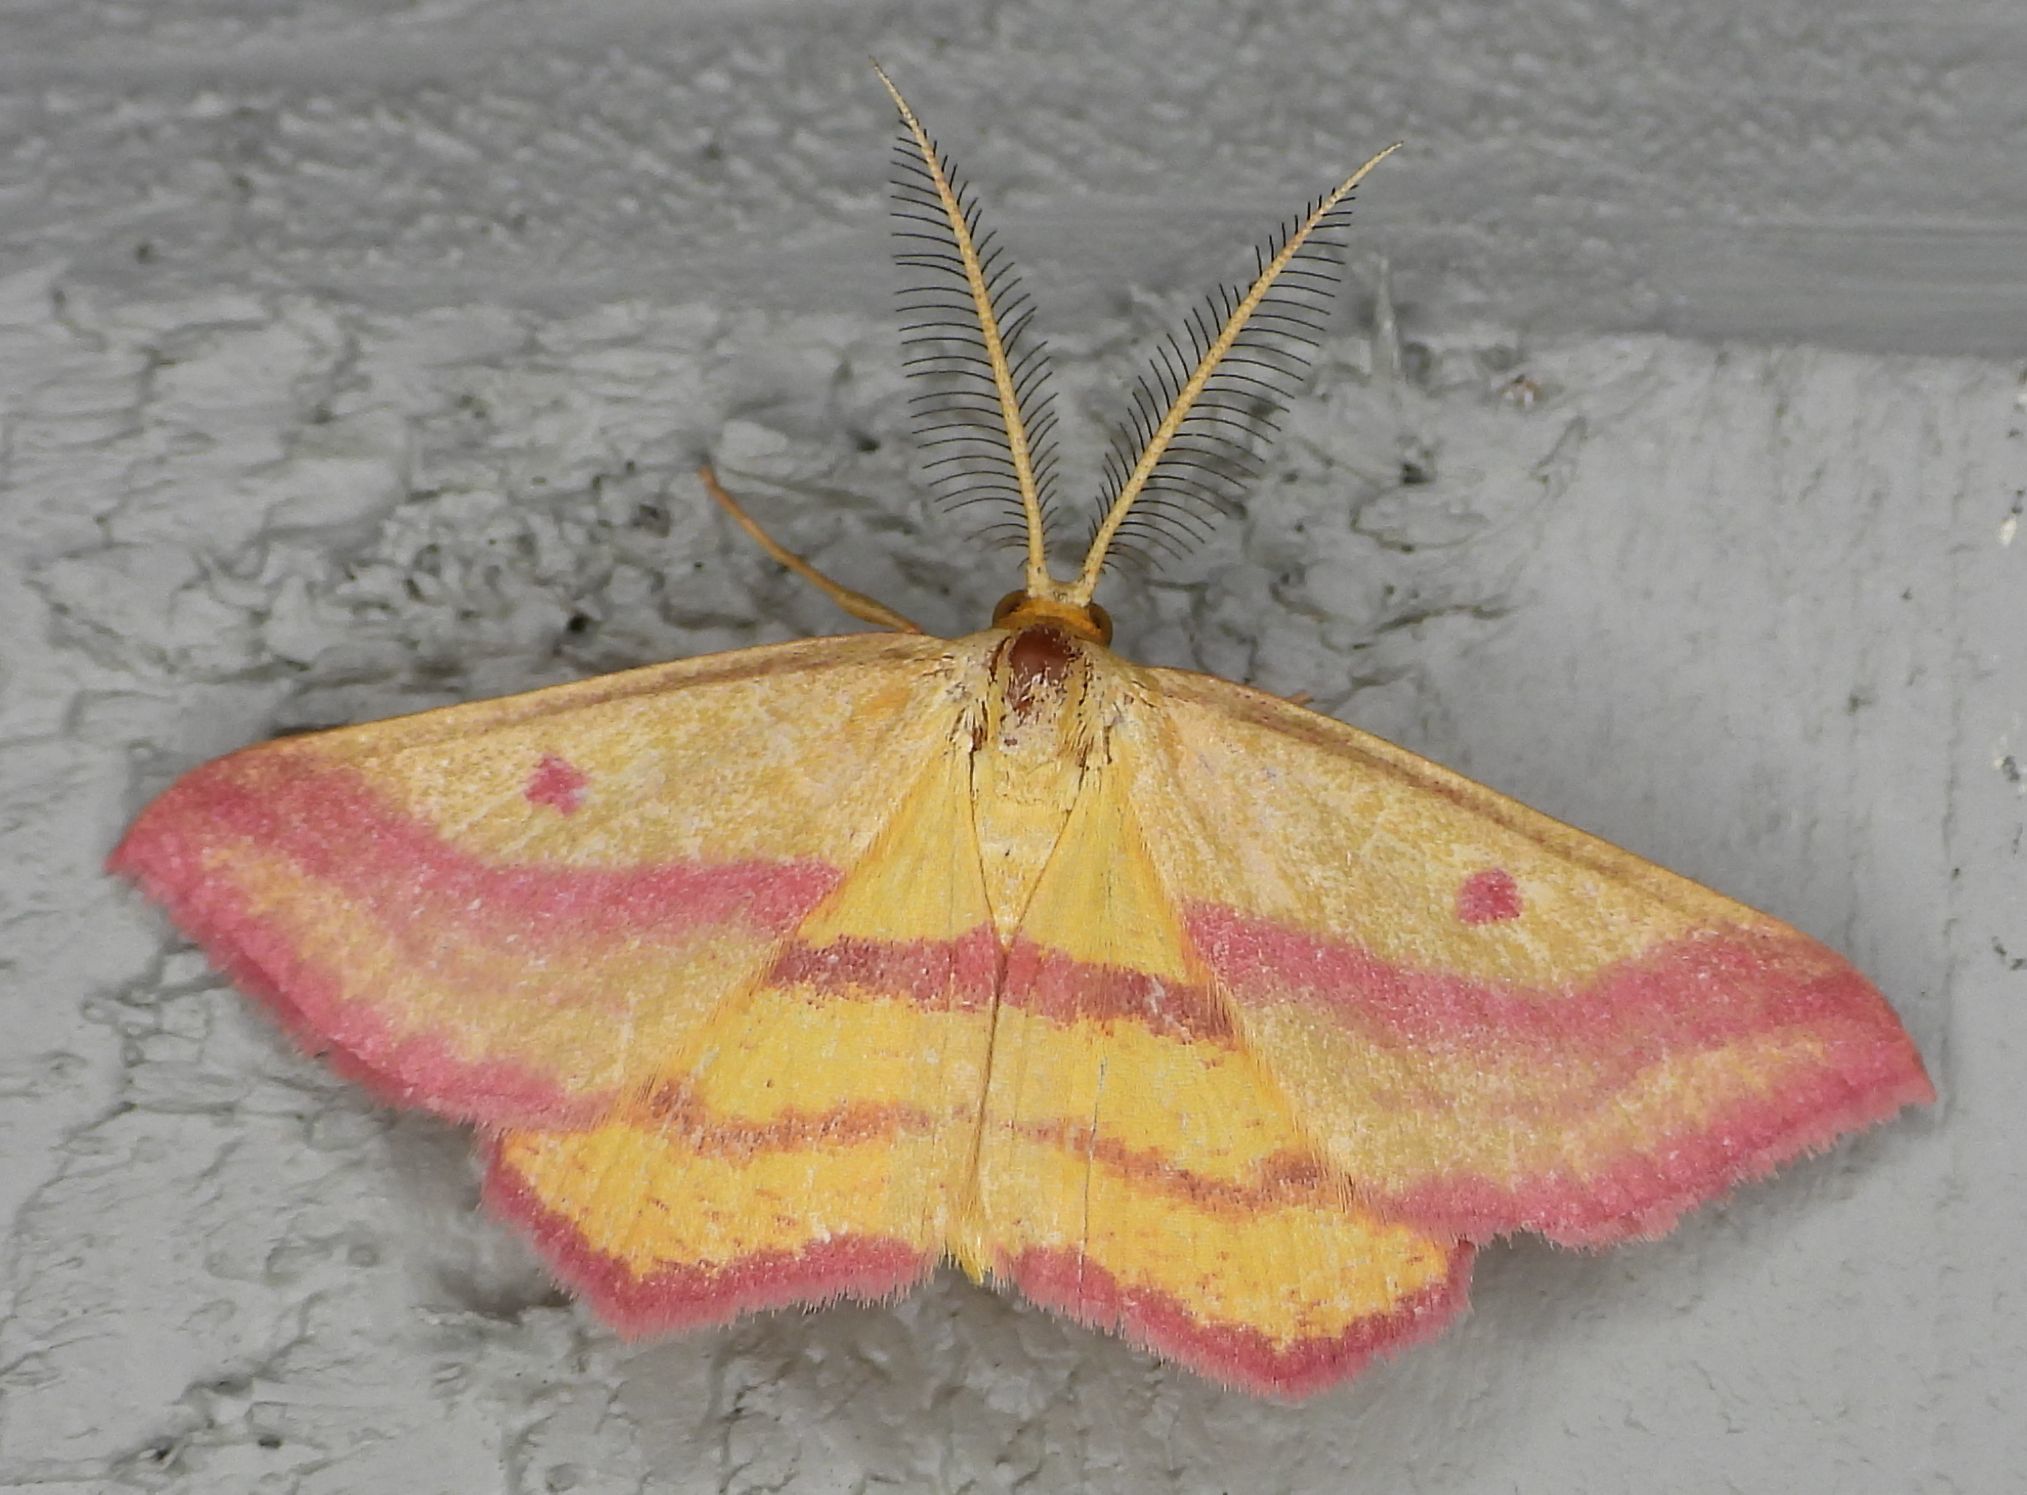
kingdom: Animalia
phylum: Arthropoda
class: Insecta
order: Lepidoptera
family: Geometridae
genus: Haematopis
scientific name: Haematopis grataria
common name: Chickweed geometer
